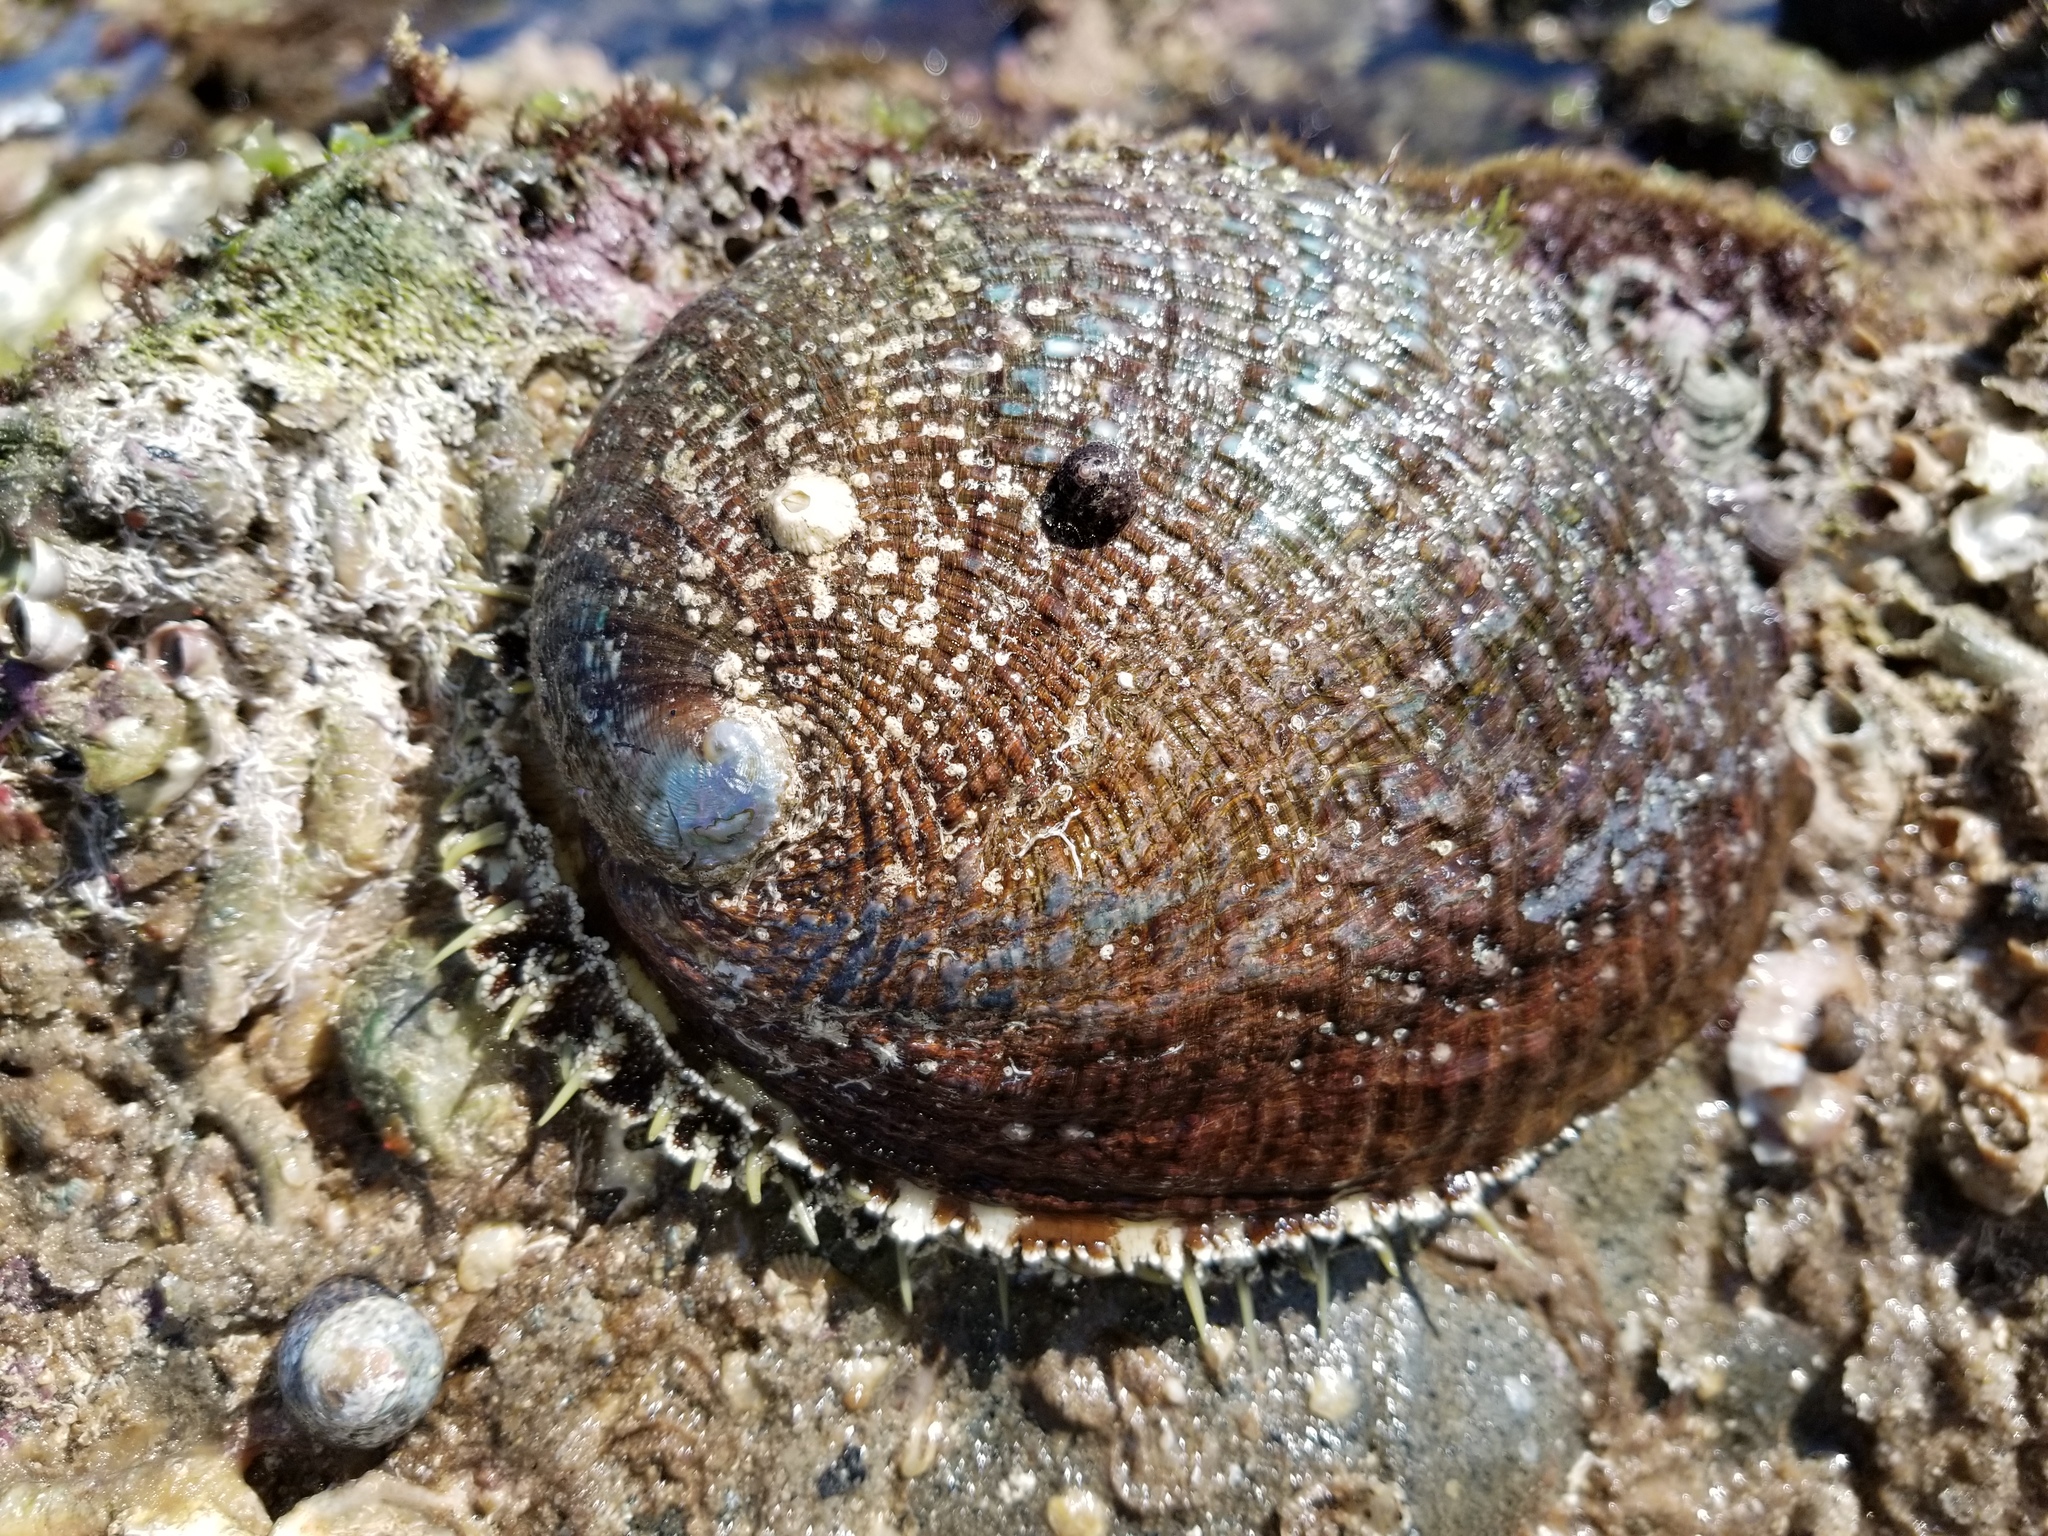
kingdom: Animalia
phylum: Mollusca
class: Gastropoda
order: Lepetellida
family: Haliotidae
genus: Haliotis
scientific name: Haliotis fulgens
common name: Green abalone
